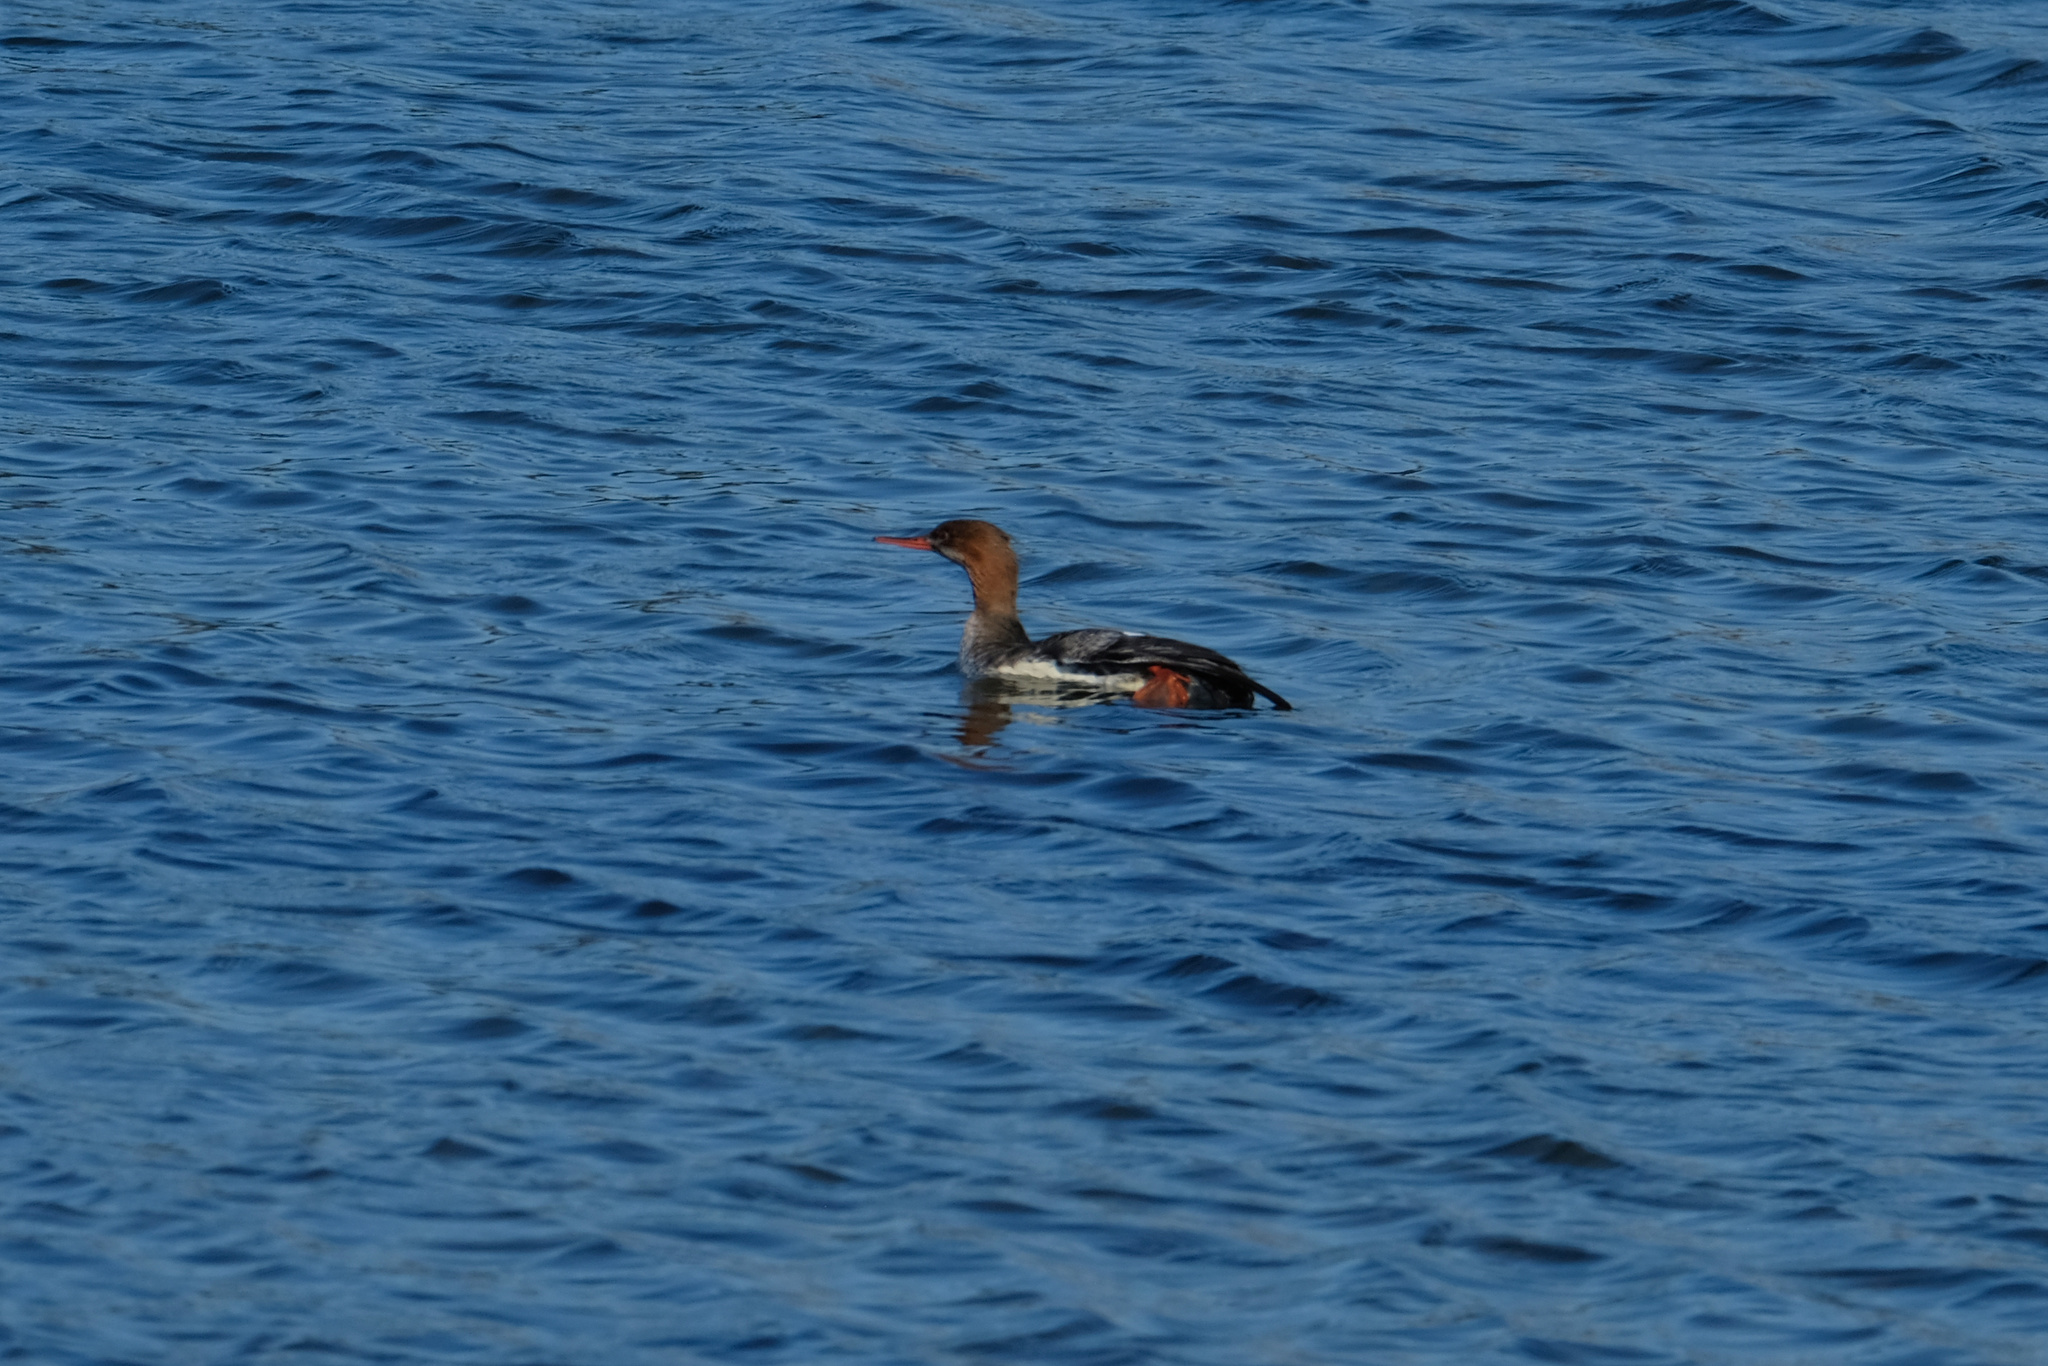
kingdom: Animalia
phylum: Chordata
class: Aves
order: Anseriformes
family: Anatidae
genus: Mergus
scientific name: Mergus serrator
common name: Red-breasted merganser
